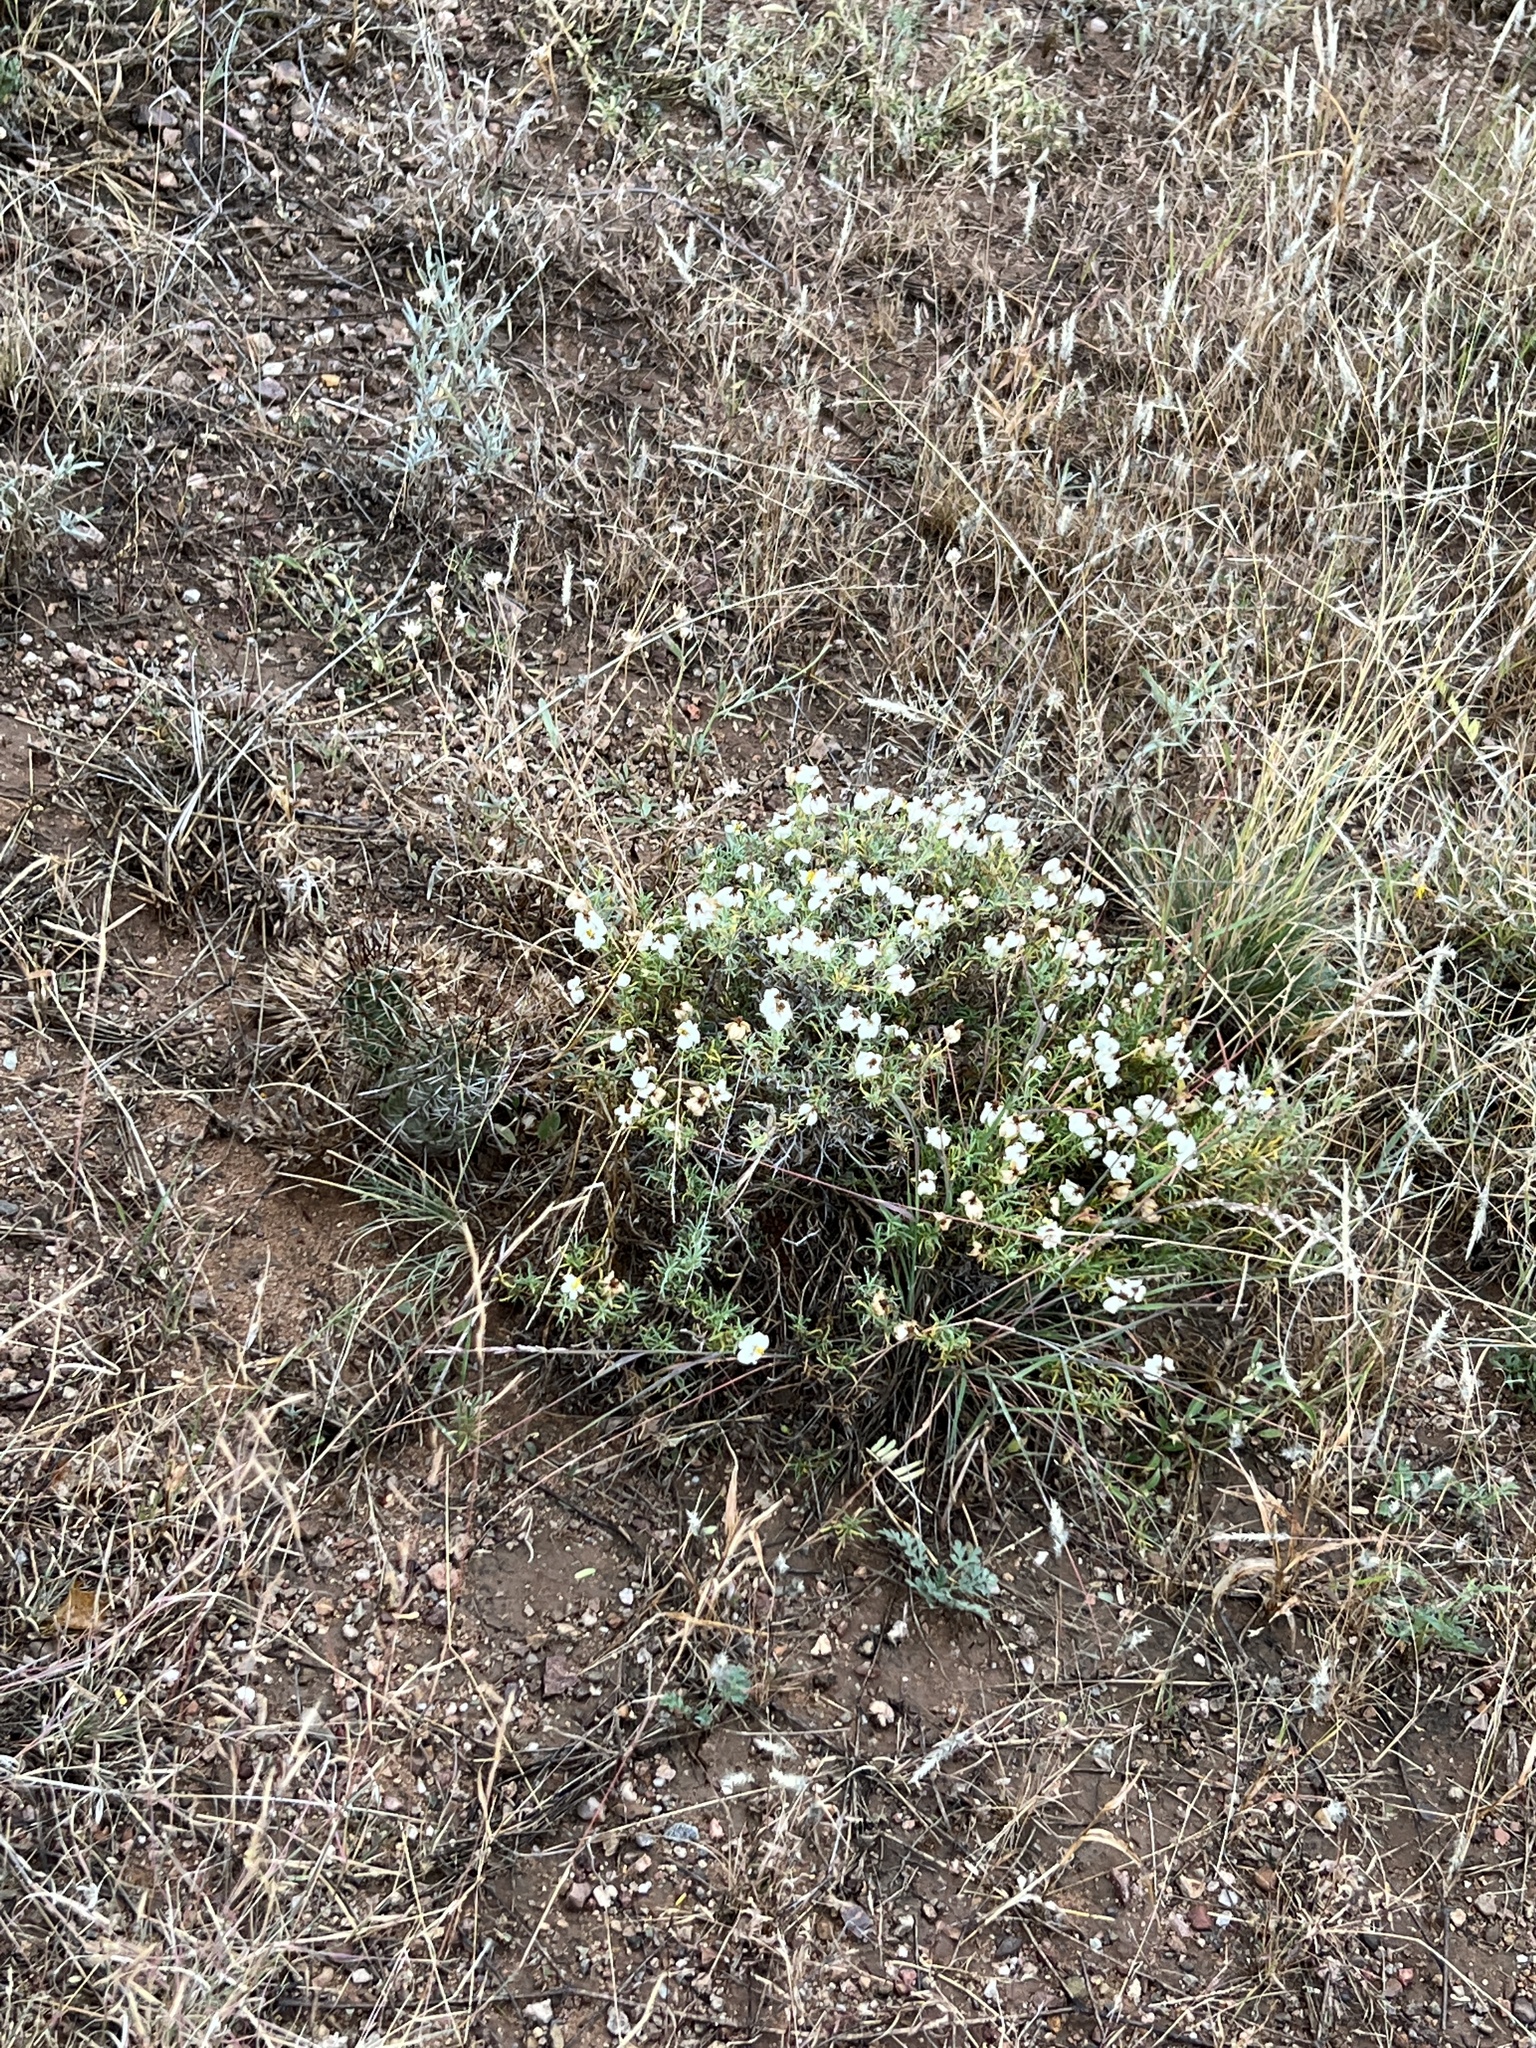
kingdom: Plantae
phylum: Tracheophyta
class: Magnoliopsida
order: Asterales
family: Asteraceae
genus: Zinnia
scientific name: Zinnia acerosa
